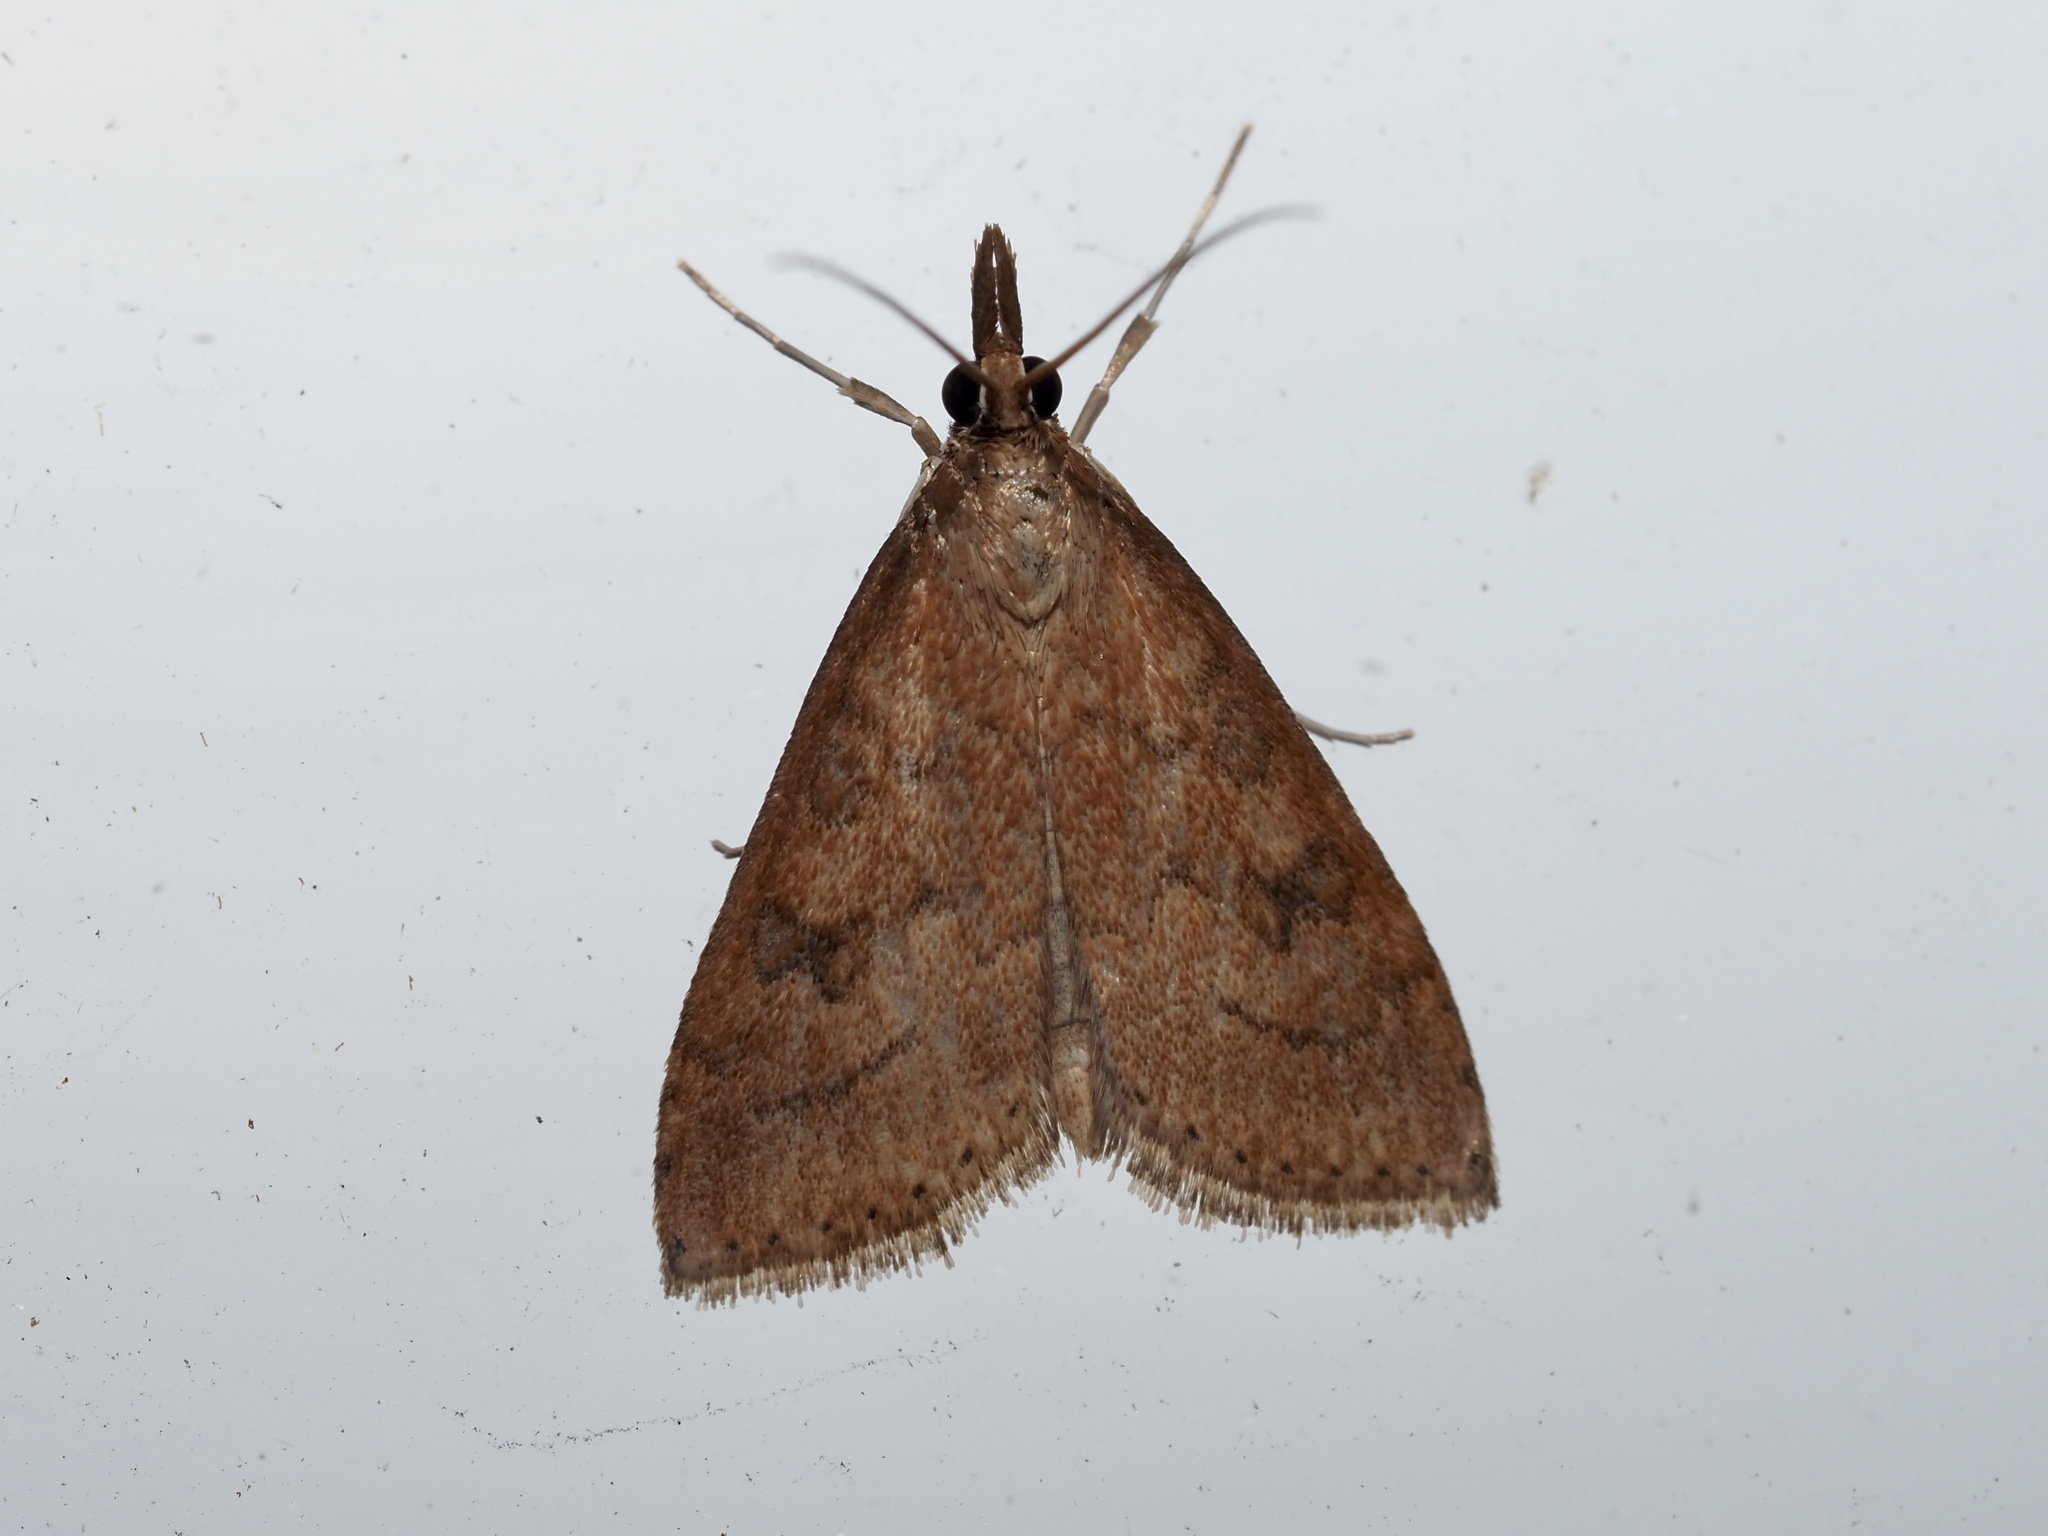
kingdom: Animalia
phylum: Arthropoda
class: Insecta
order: Lepidoptera
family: Crambidae
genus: Udea
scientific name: Udea rubigalis
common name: Celery leaftier moth
